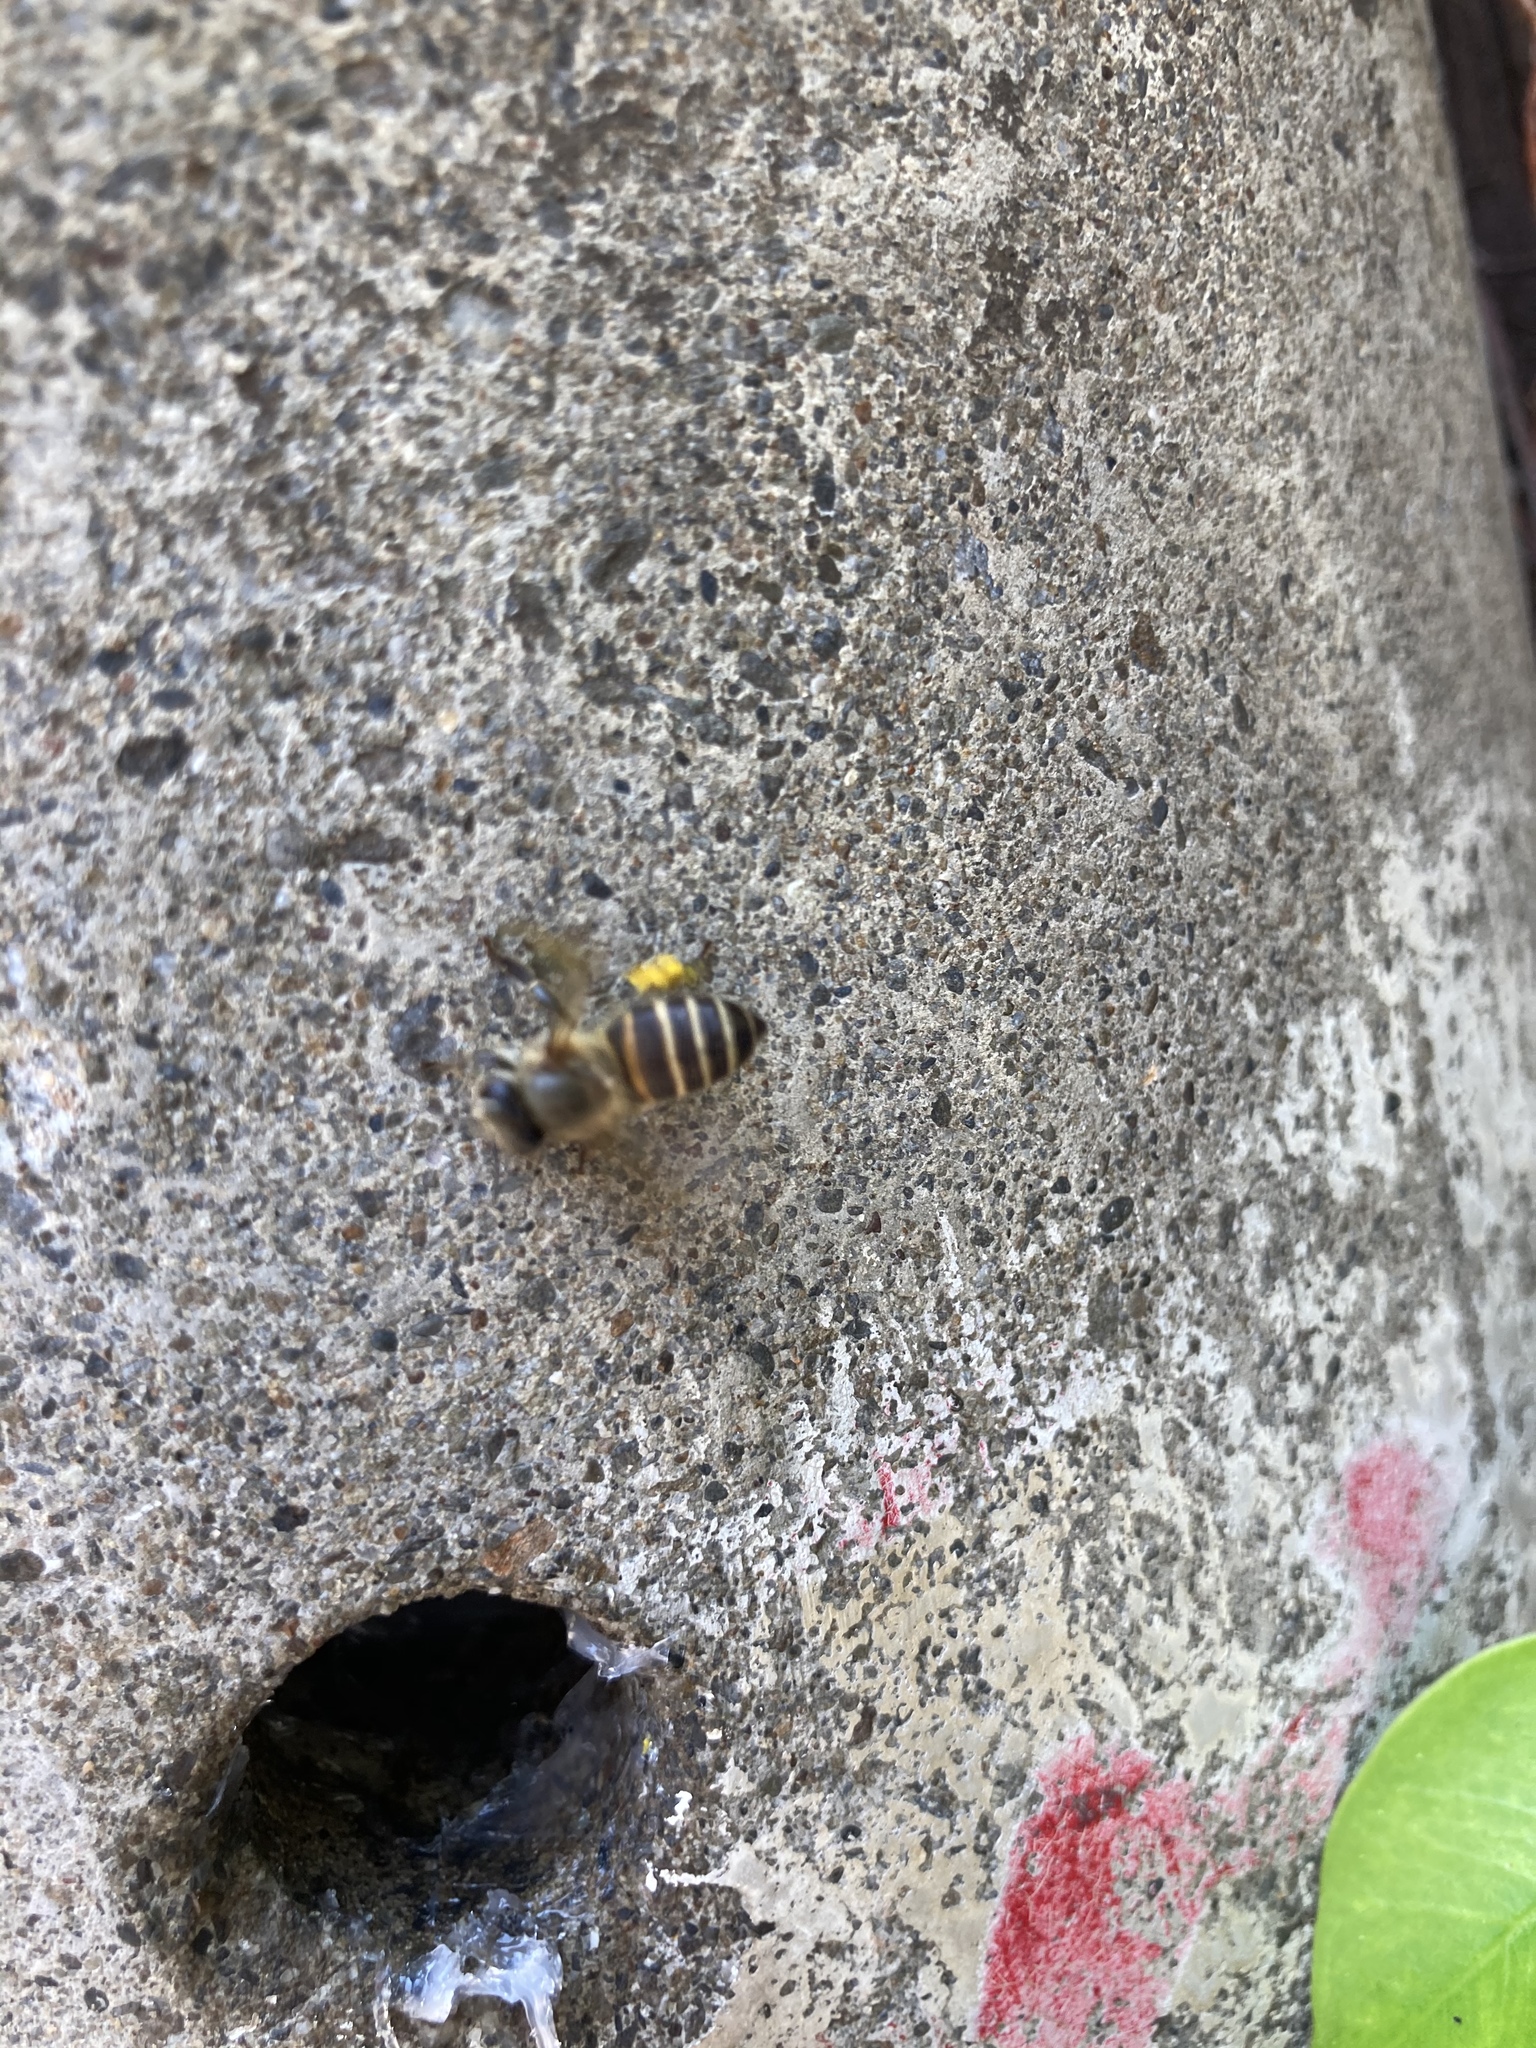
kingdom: Animalia
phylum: Arthropoda
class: Insecta
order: Hymenoptera
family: Apidae
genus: Apis
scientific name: Apis cerana
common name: Honey bee
